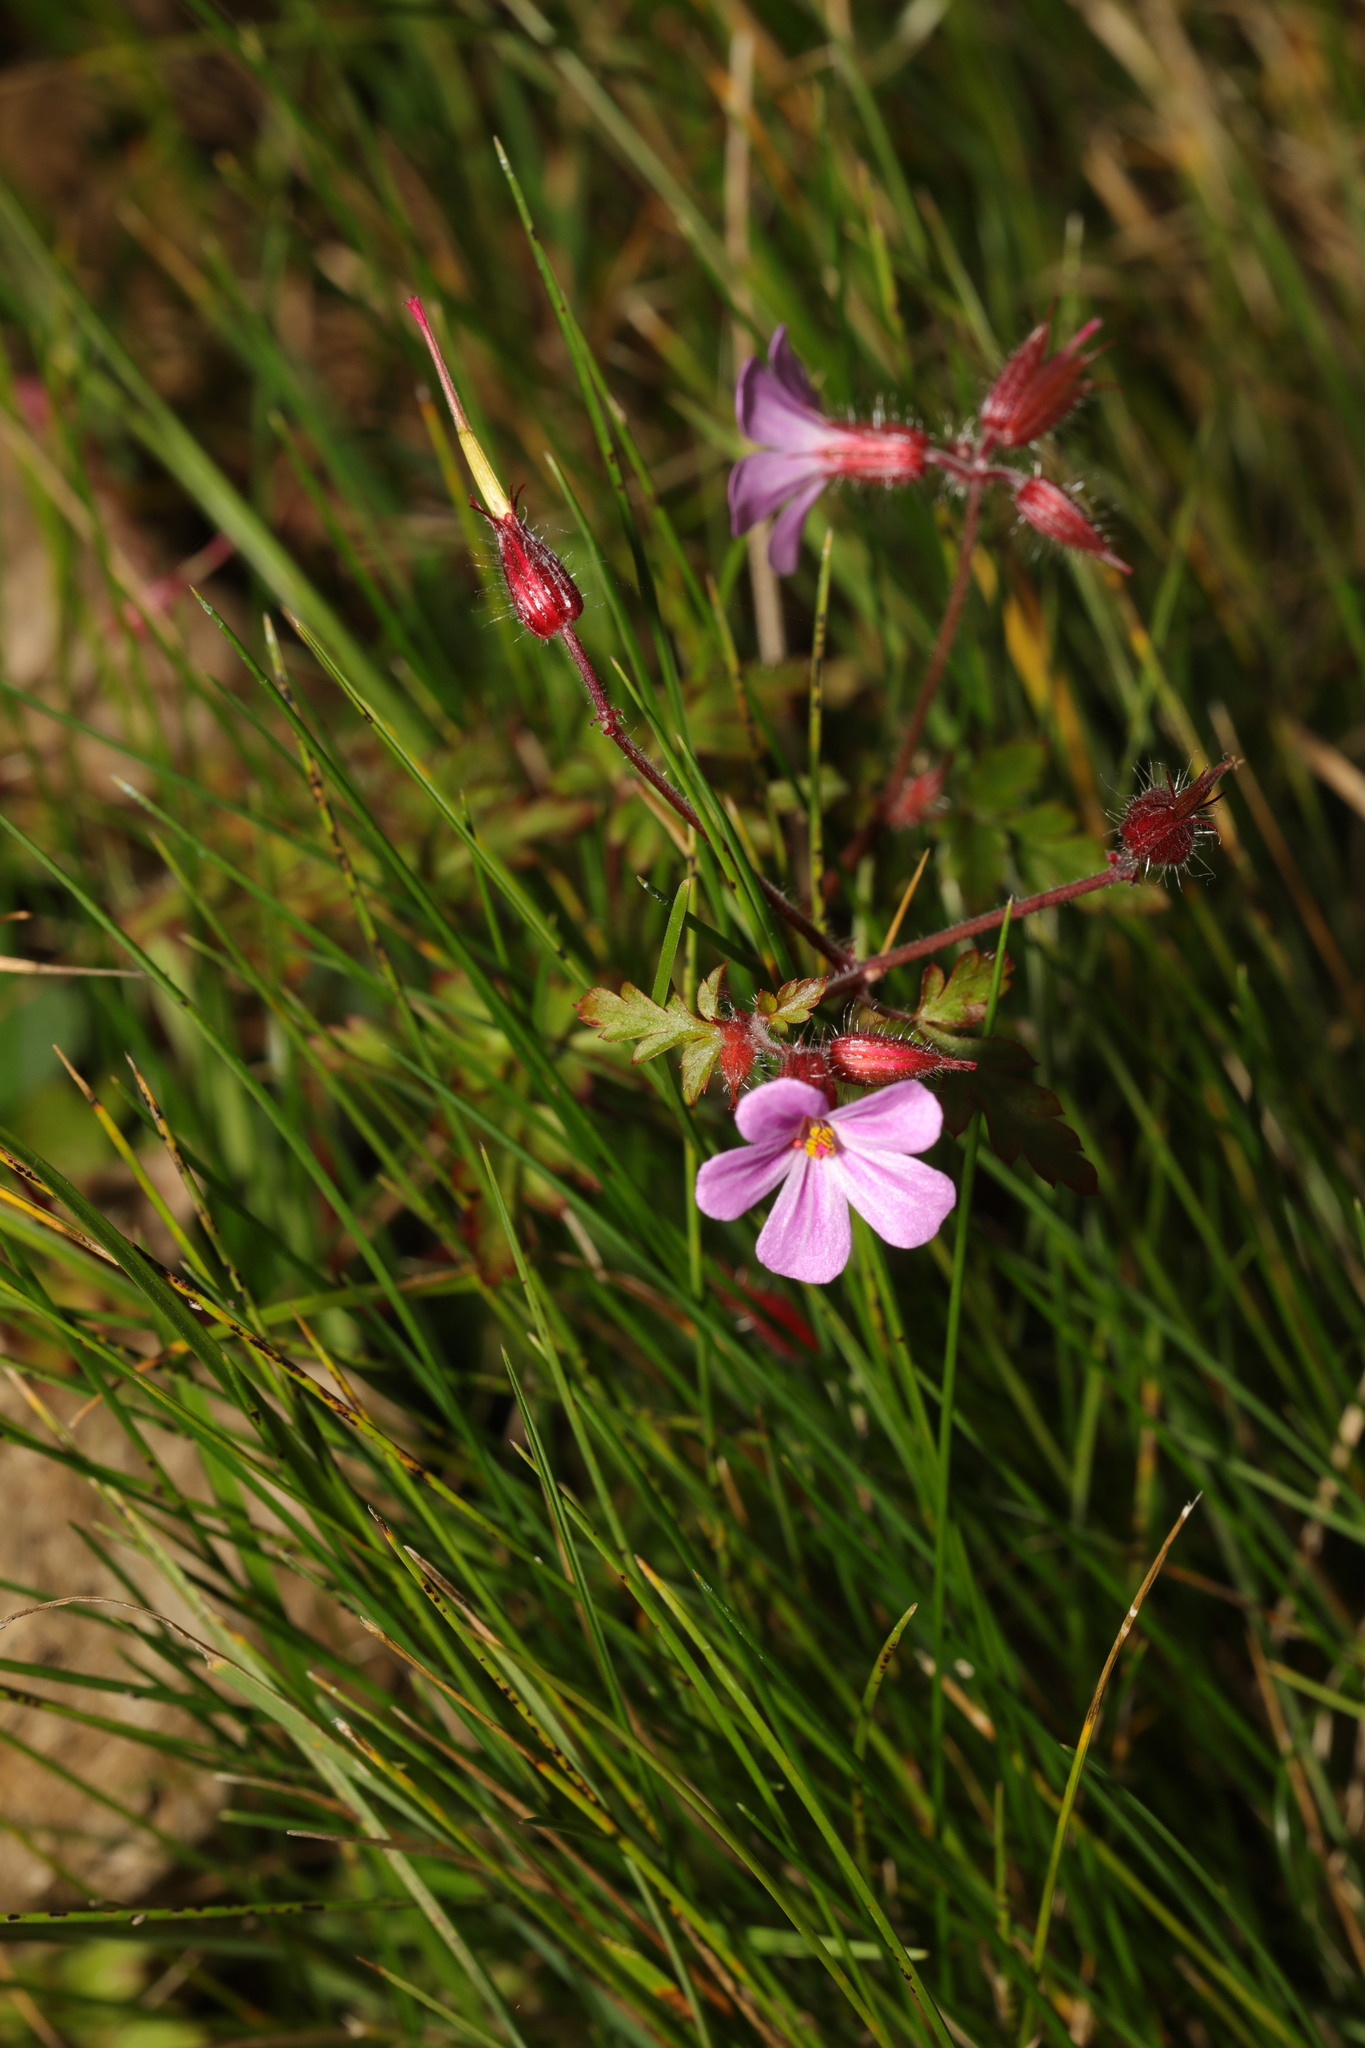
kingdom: Plantae
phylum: Tracheophyta
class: Magnoliopsida
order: Geraniales
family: Geraniaceae
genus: Geranium
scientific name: Geranium robertianum
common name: Herb-robert
